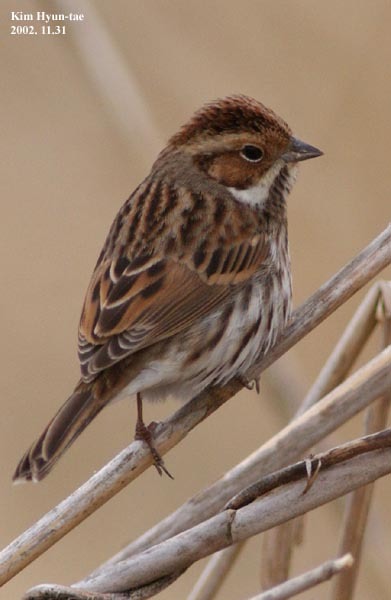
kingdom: Animalia
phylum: Chordata
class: Aves
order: Passeriformes
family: Emberizidae
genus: Emberiza
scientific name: Emberiza pusilla
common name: Little bunting
